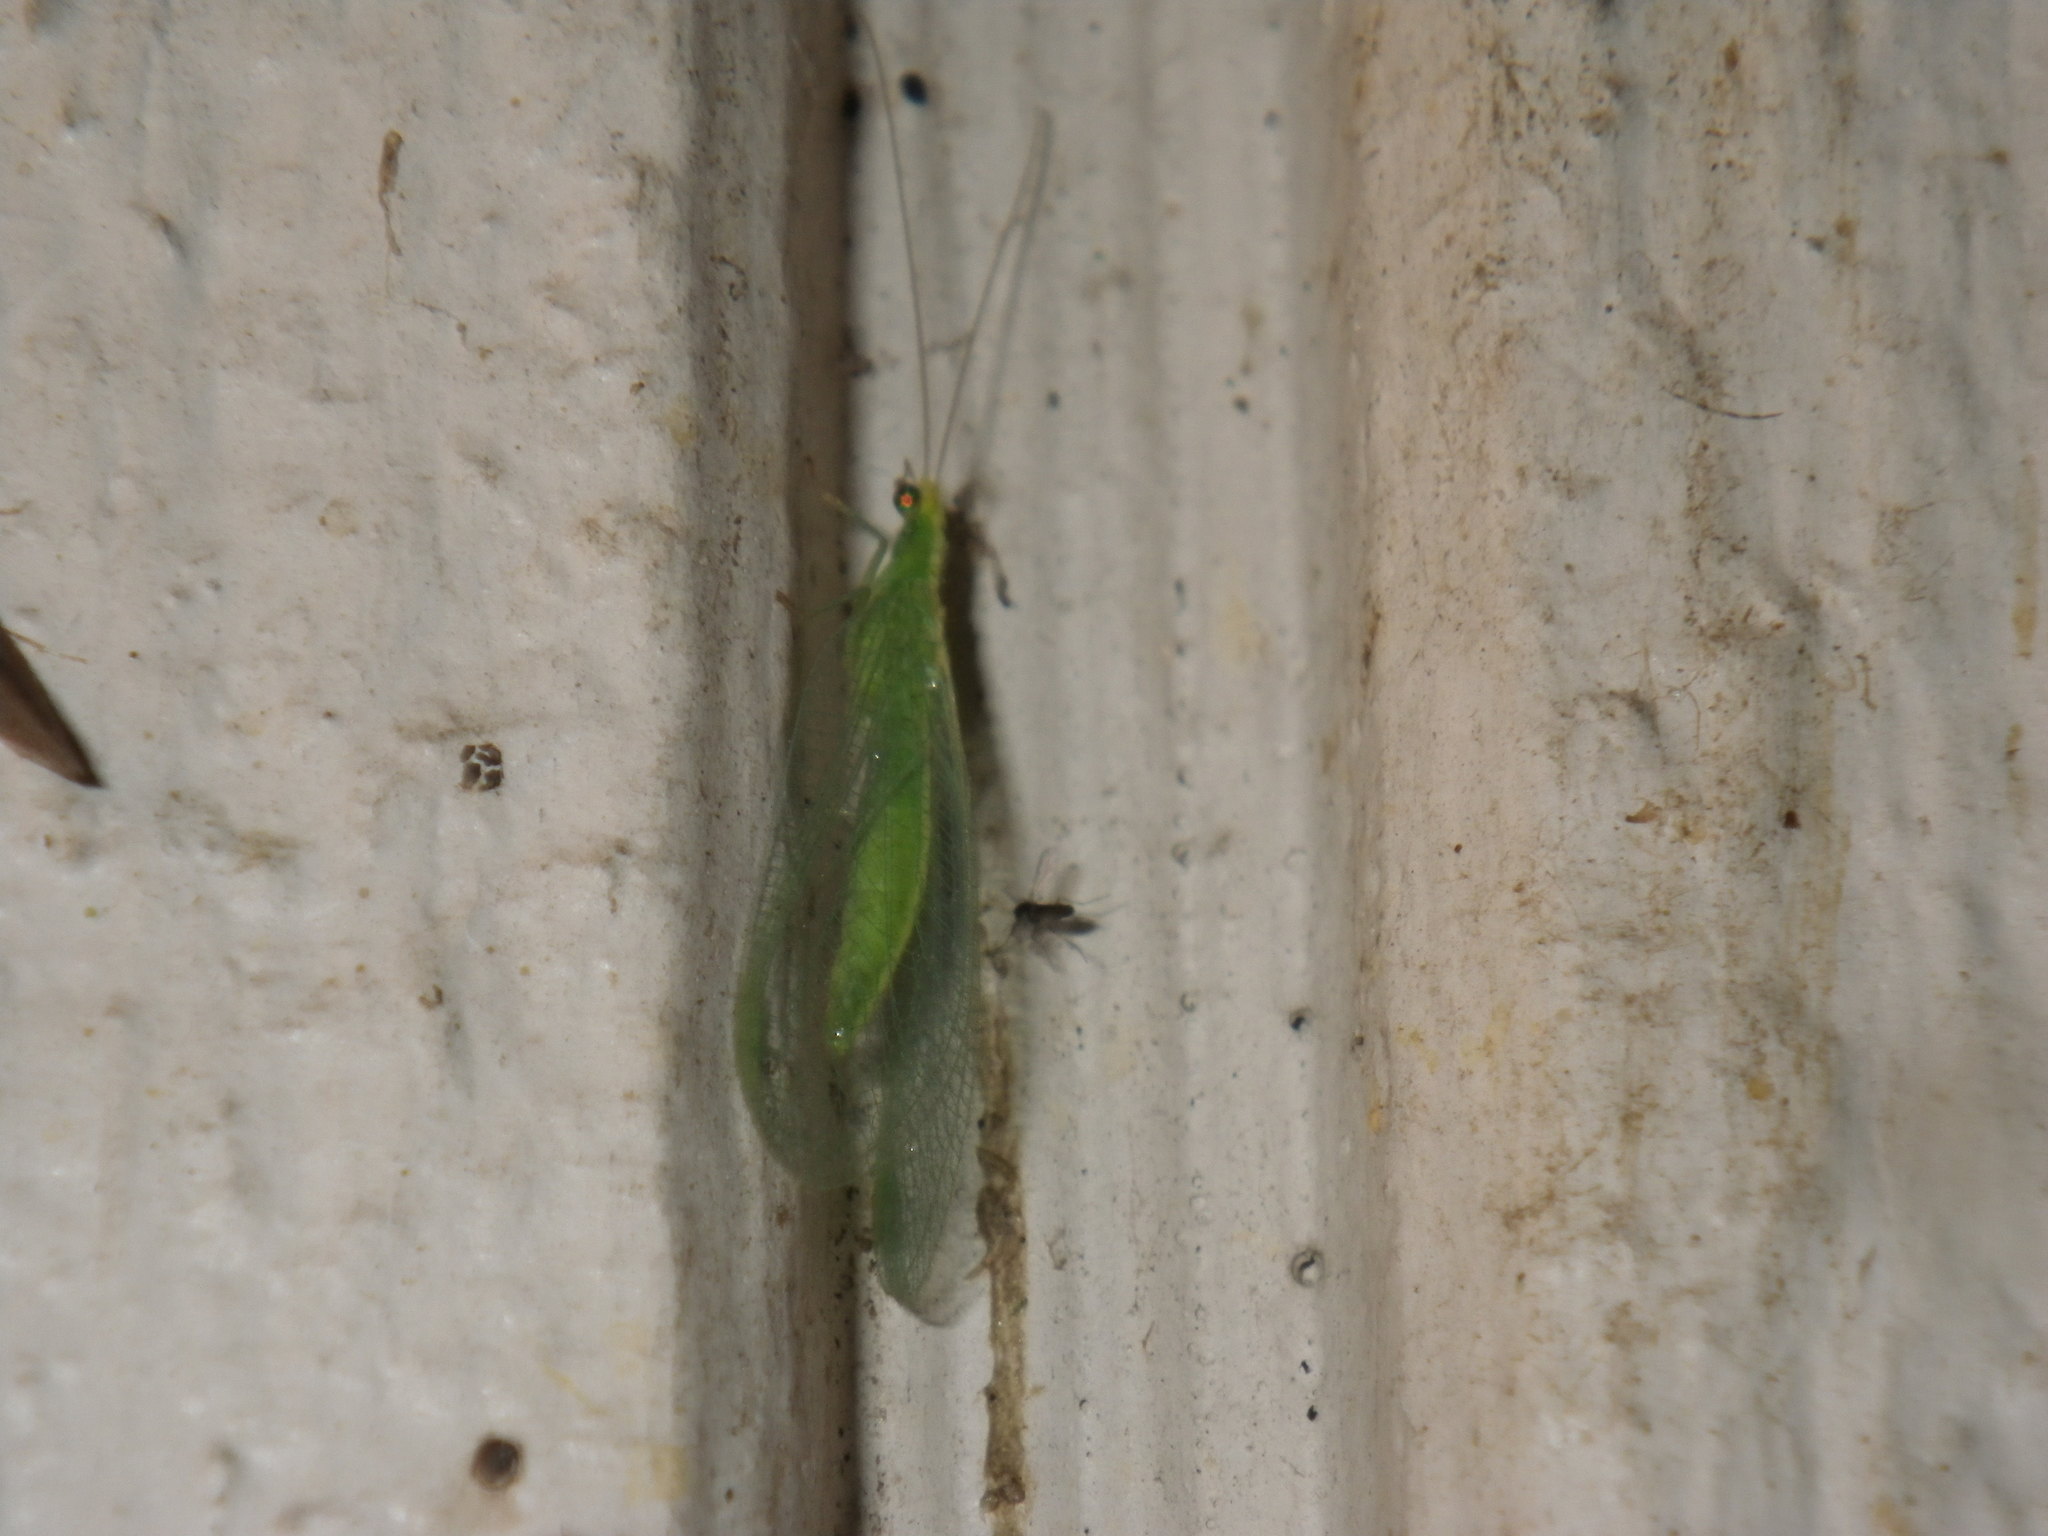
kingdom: Animalia
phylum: Arthropoda
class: Insecta
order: Neuroptera
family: Chrysopidae
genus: Chrysoperla
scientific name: Chrysoperla
